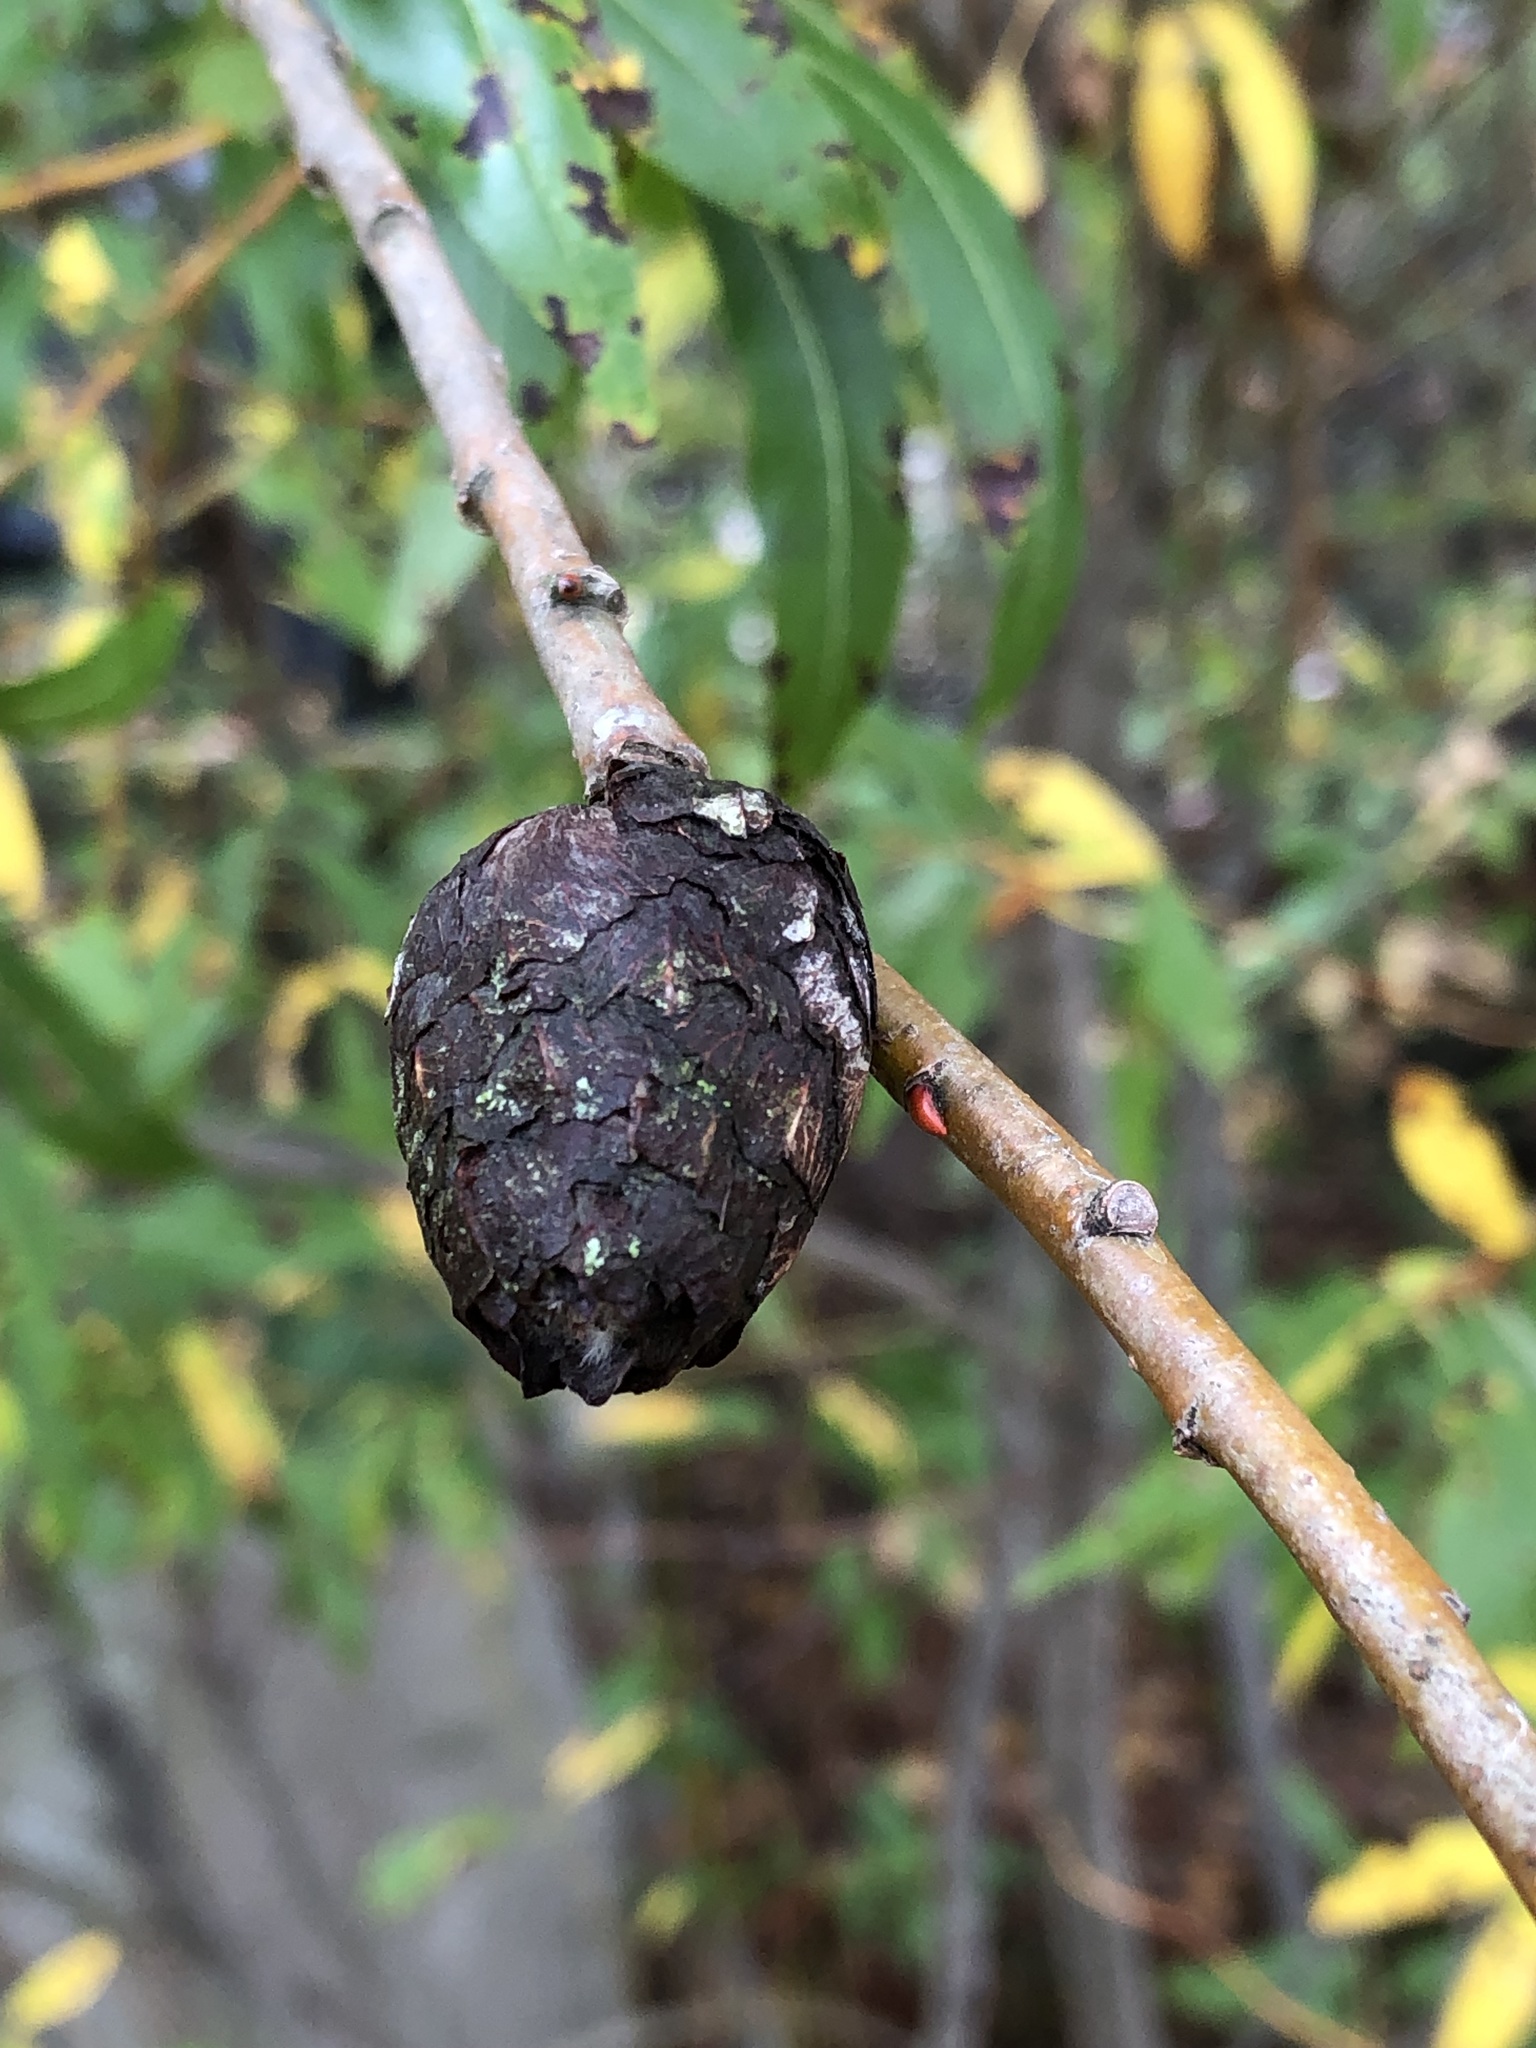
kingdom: Animalia
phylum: Arthropoda
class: Insecta
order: Diptera
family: Cecidomyiidae
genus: Rabdophaga
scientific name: Rabdophaga strobiloides
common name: Willow pinecone gall midge
